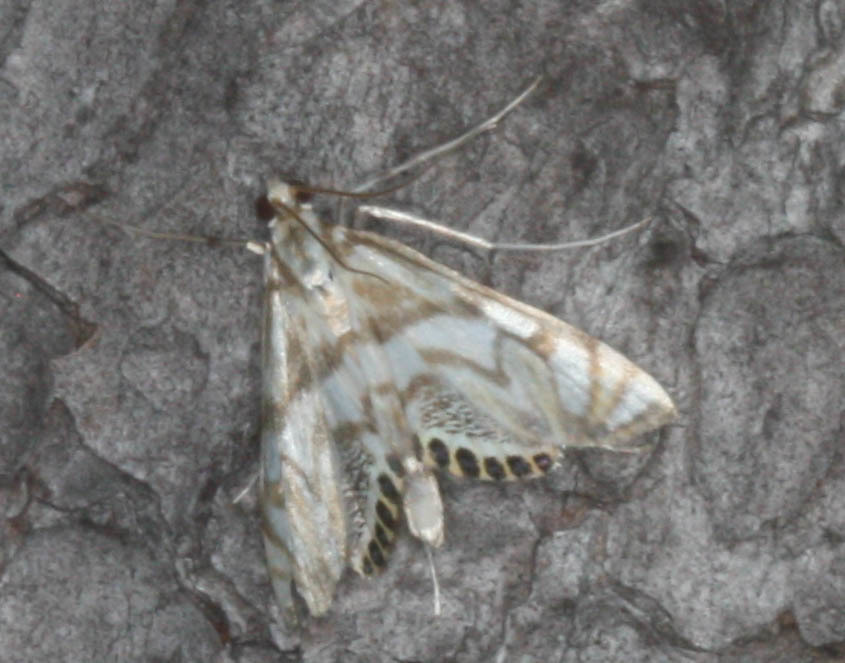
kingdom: Animalia
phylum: Arthropoda
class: Insecta
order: Lepidoptera
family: Crambidae
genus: Neocataclysta
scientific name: Neocataclysta magnificalis
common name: Scrollwork pyralid moth
